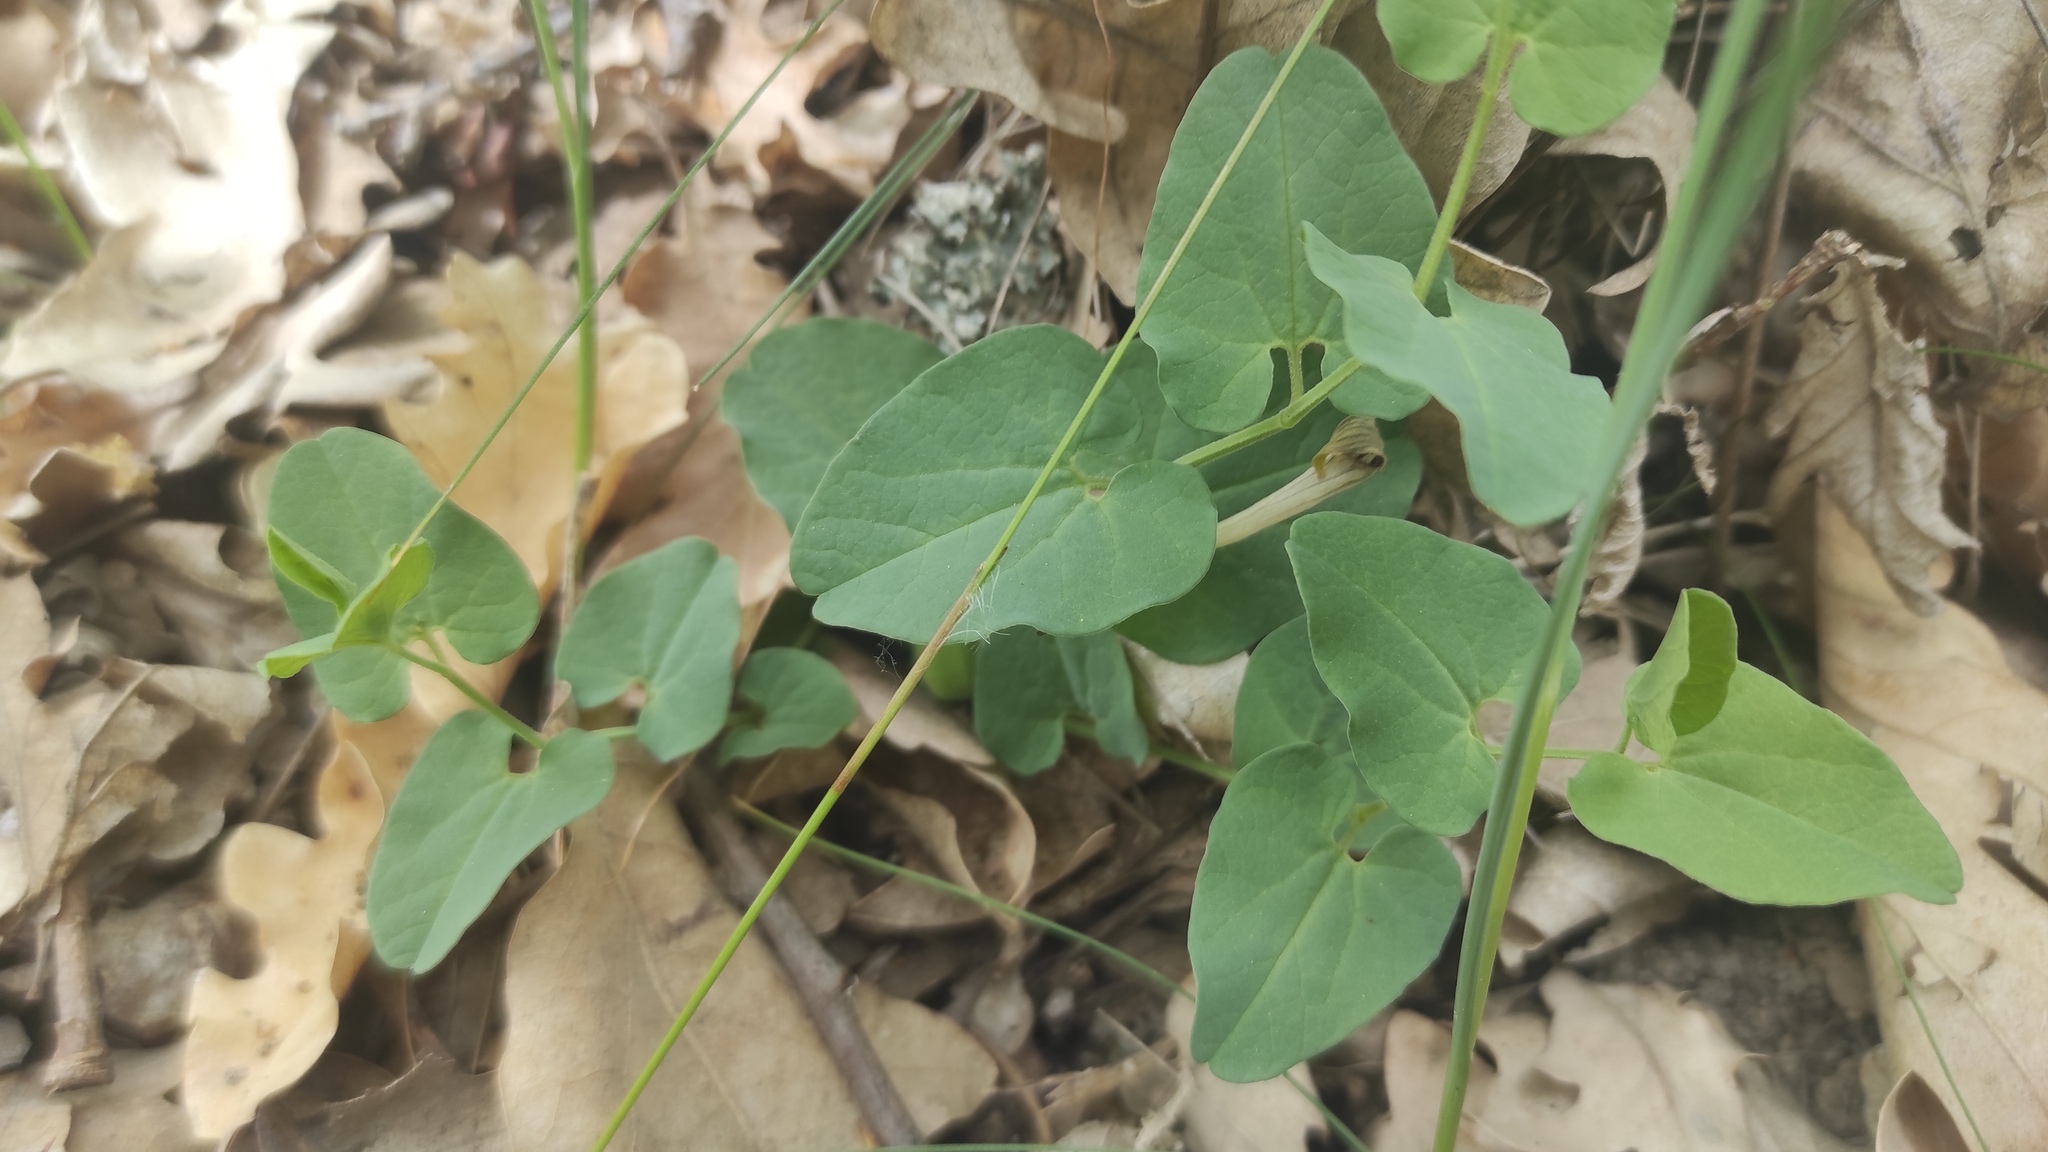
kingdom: Plantae
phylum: Tracheophyta
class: Magnoliopsida
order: Piperales
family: Aristolochiaceae
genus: Aristolochia
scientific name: Aristolochia paucinervis
